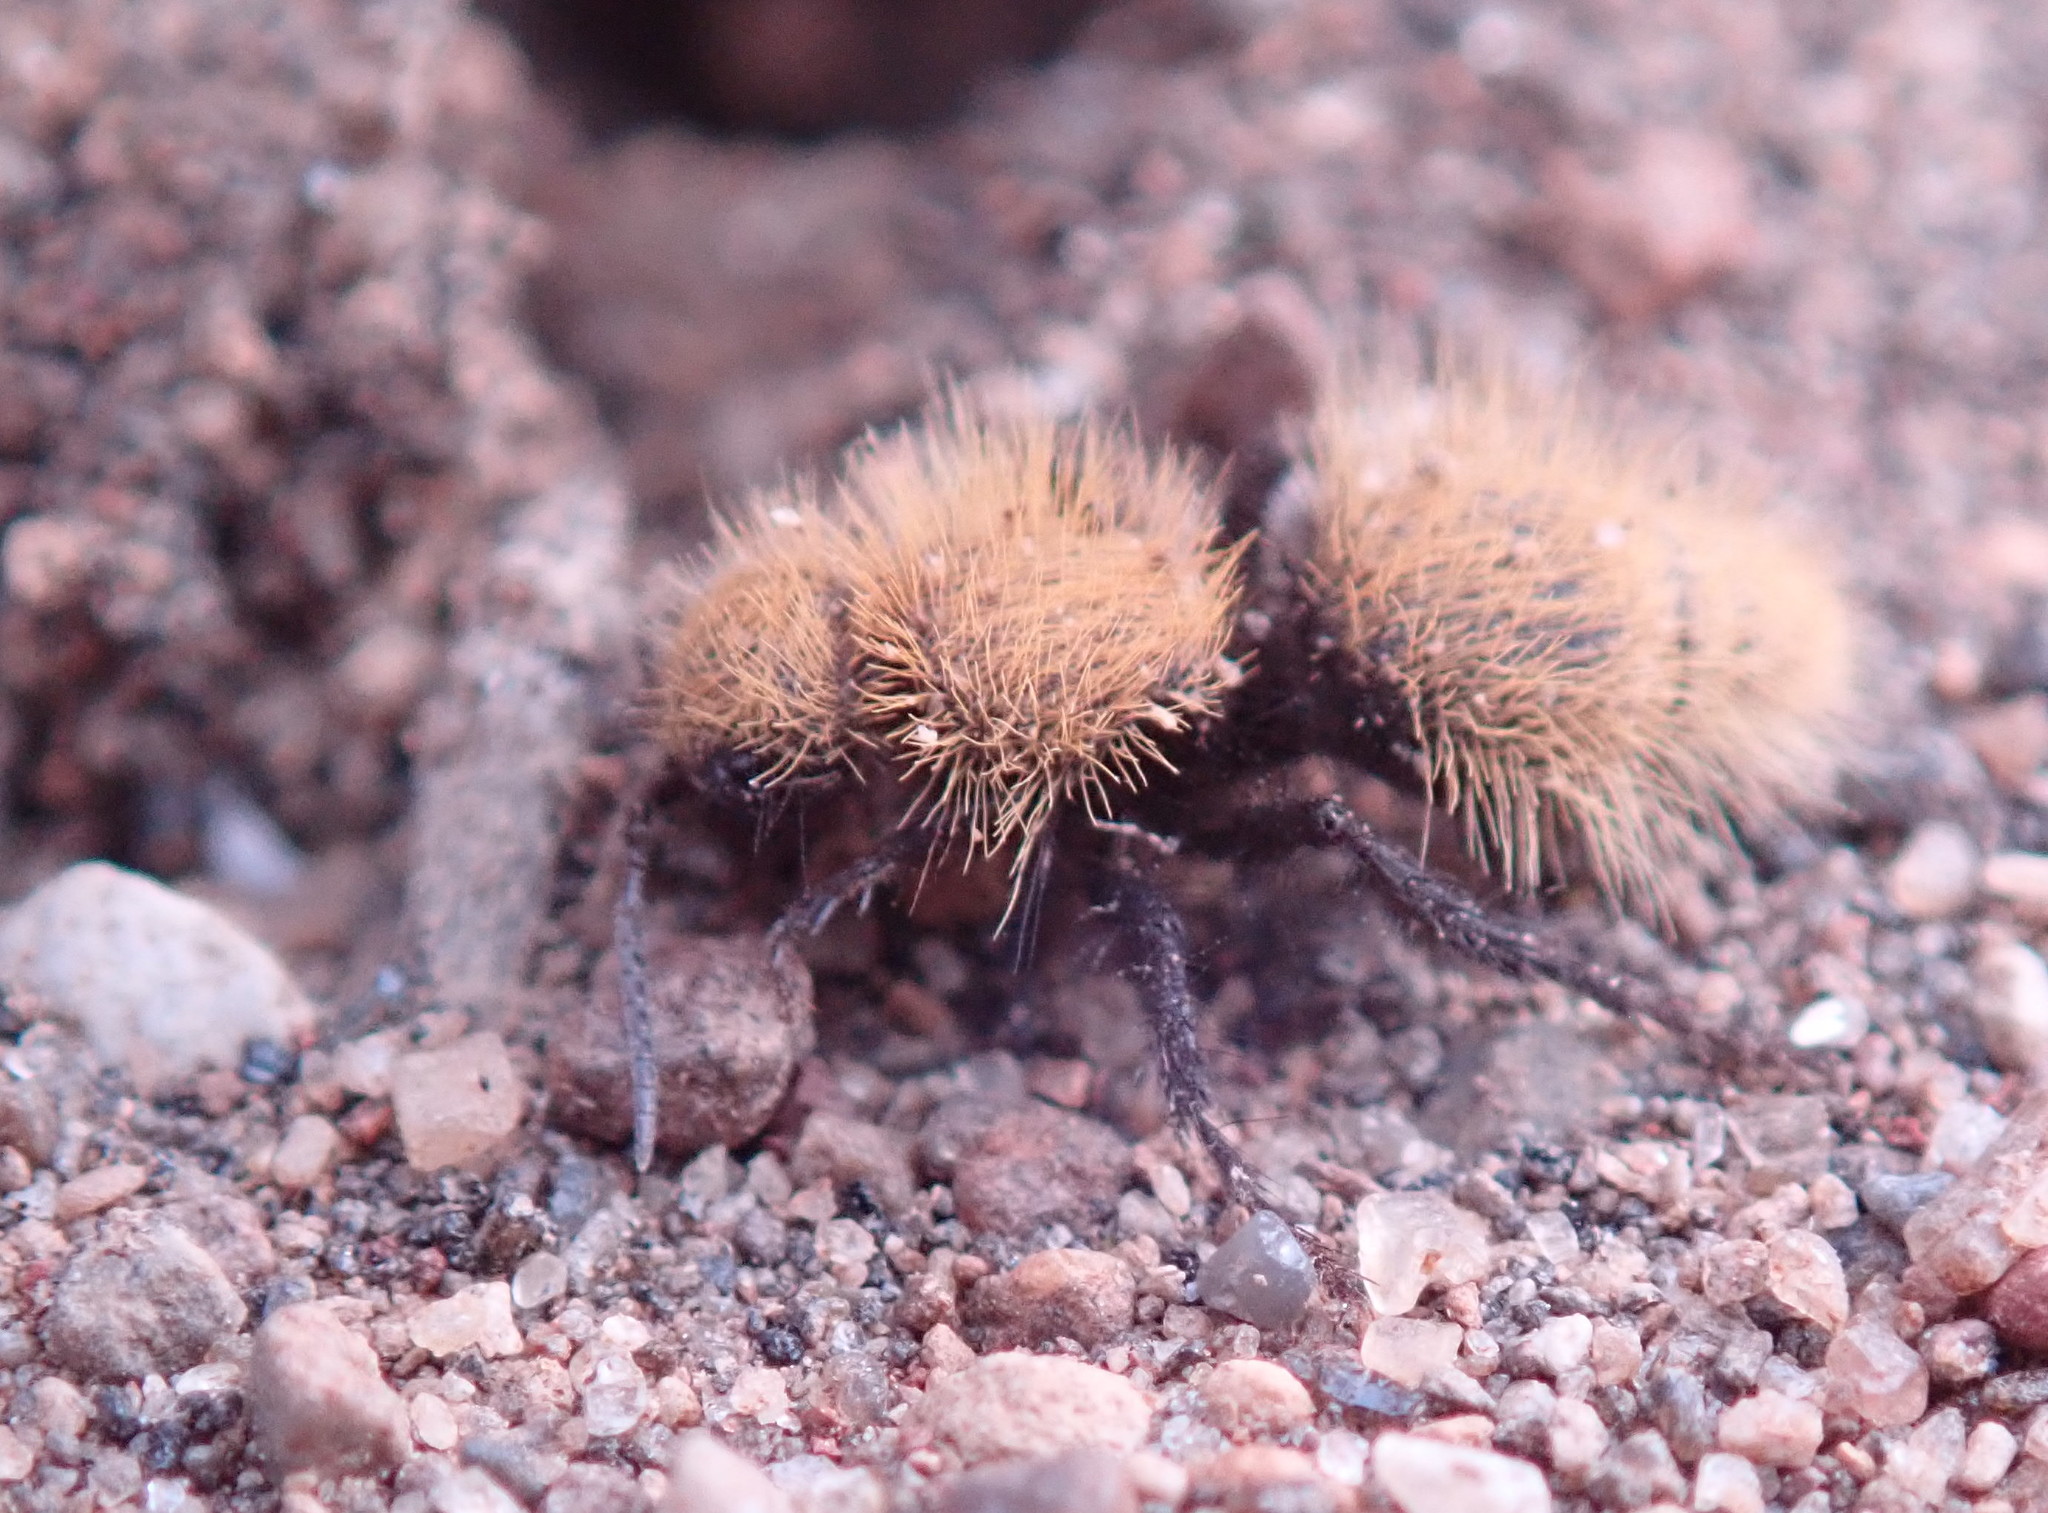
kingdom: Animalia
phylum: Arthropoda
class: Insecta
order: Hymenoptera
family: Mutillidae
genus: Dasymutilla
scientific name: Dasymutilla
